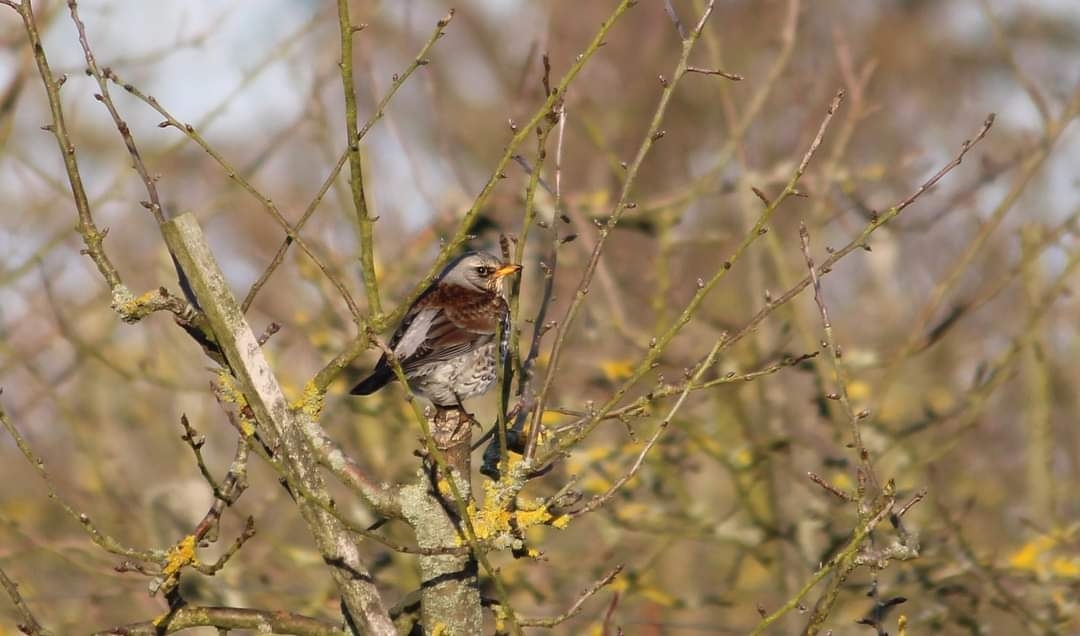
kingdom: Animalia
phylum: Chordata
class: Aves
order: Passeriformes
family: Turdidae
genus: Turdus
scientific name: Turdus pilaris
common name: Fieldfare
